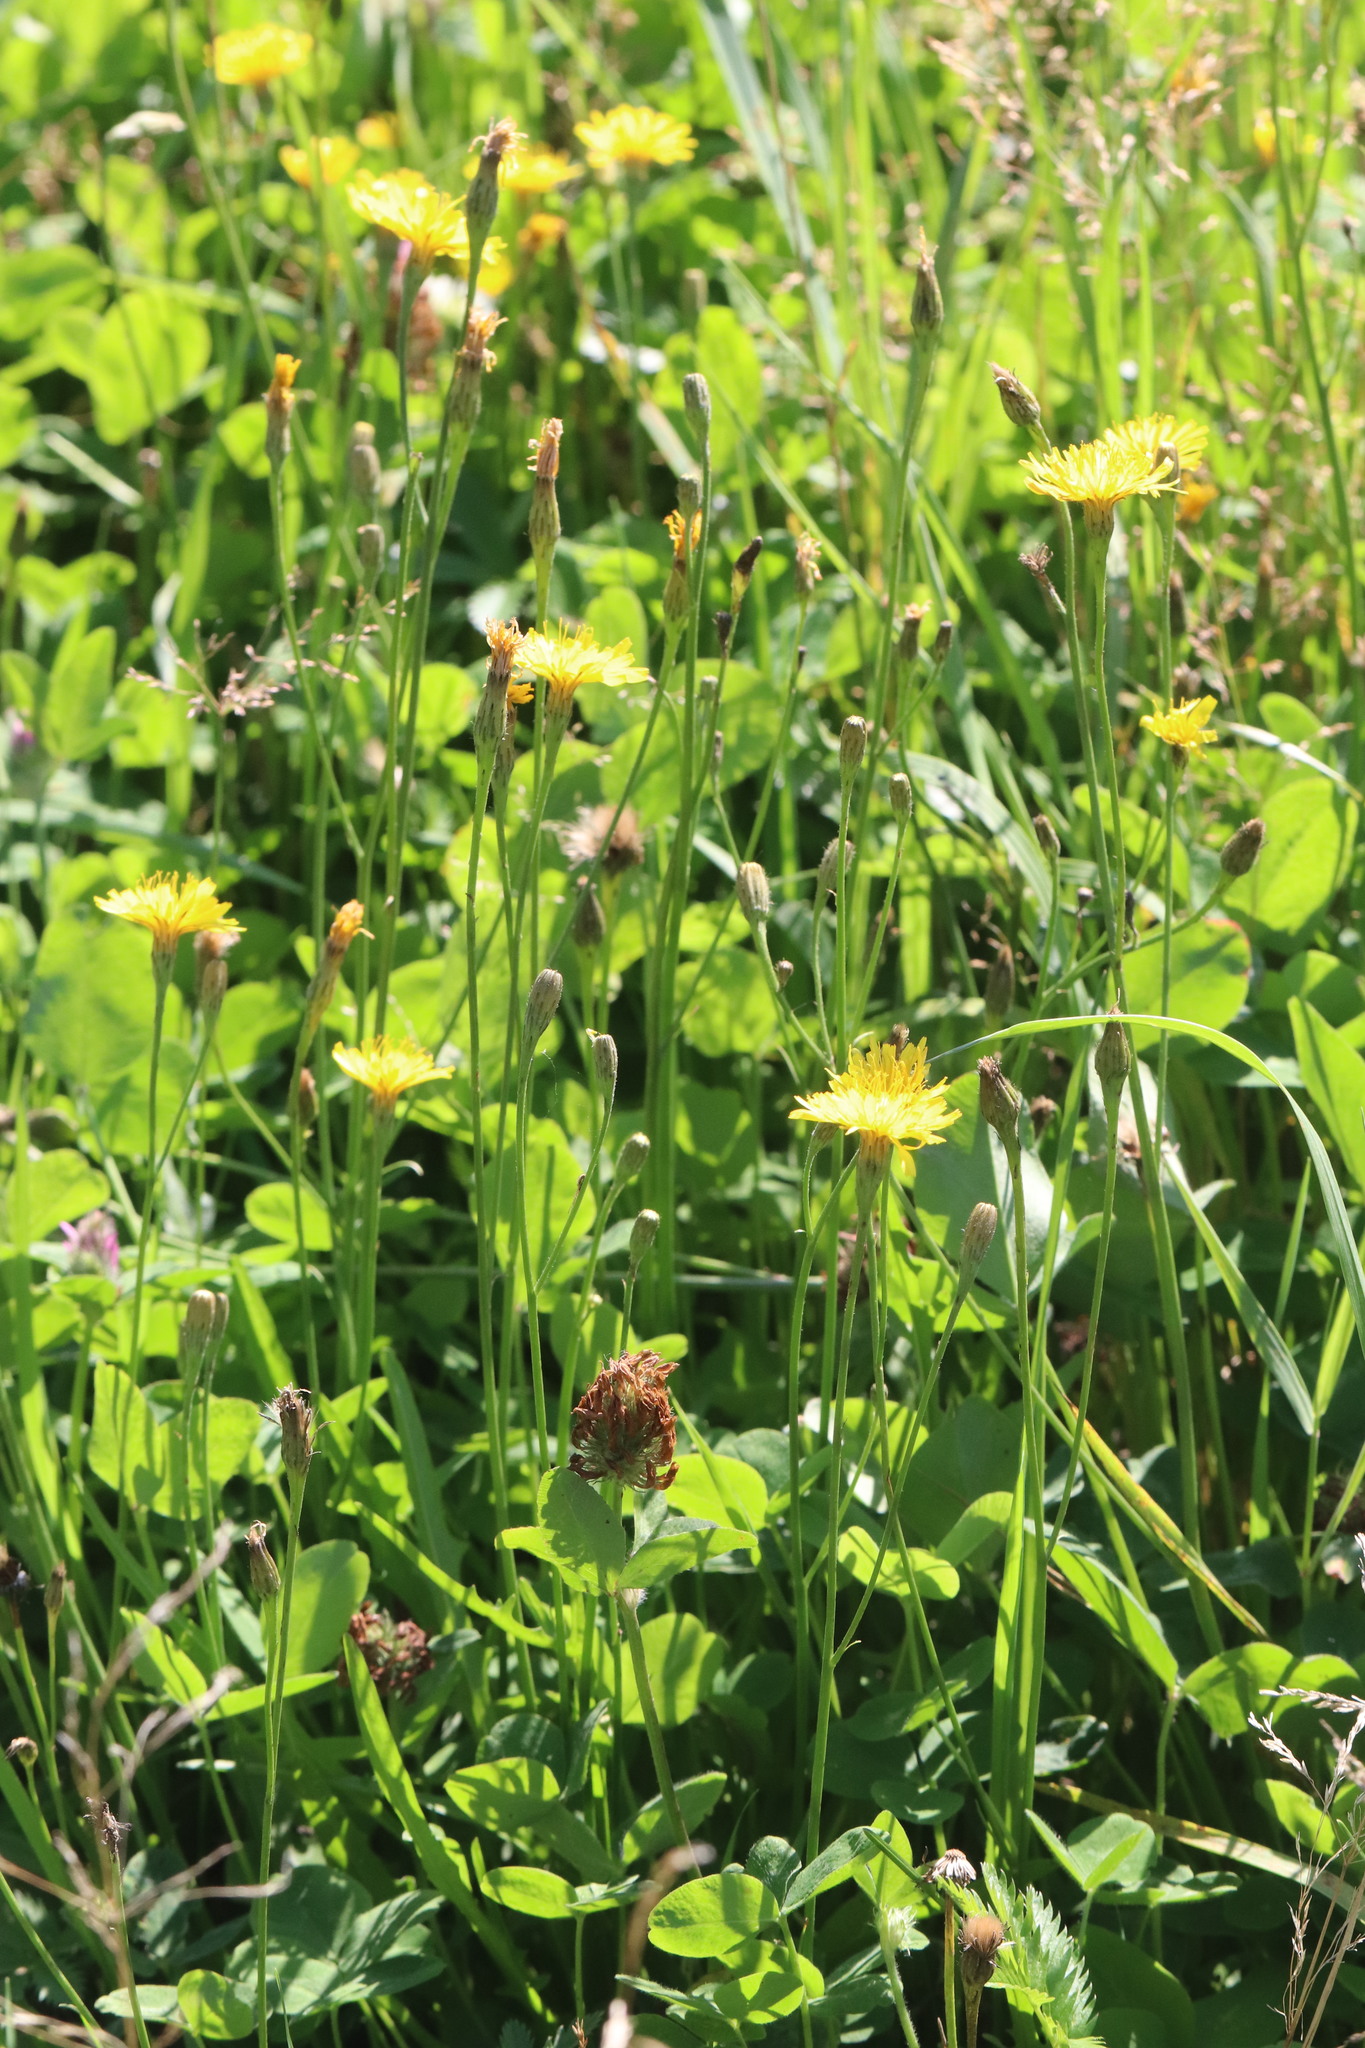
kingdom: Plantae
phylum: Tracheophyta
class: Magnoliopsida
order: Asterales
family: Asteraceae
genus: Scorzoneroides
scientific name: Scorzoneroides autumnalis
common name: Autumn hawkbit
